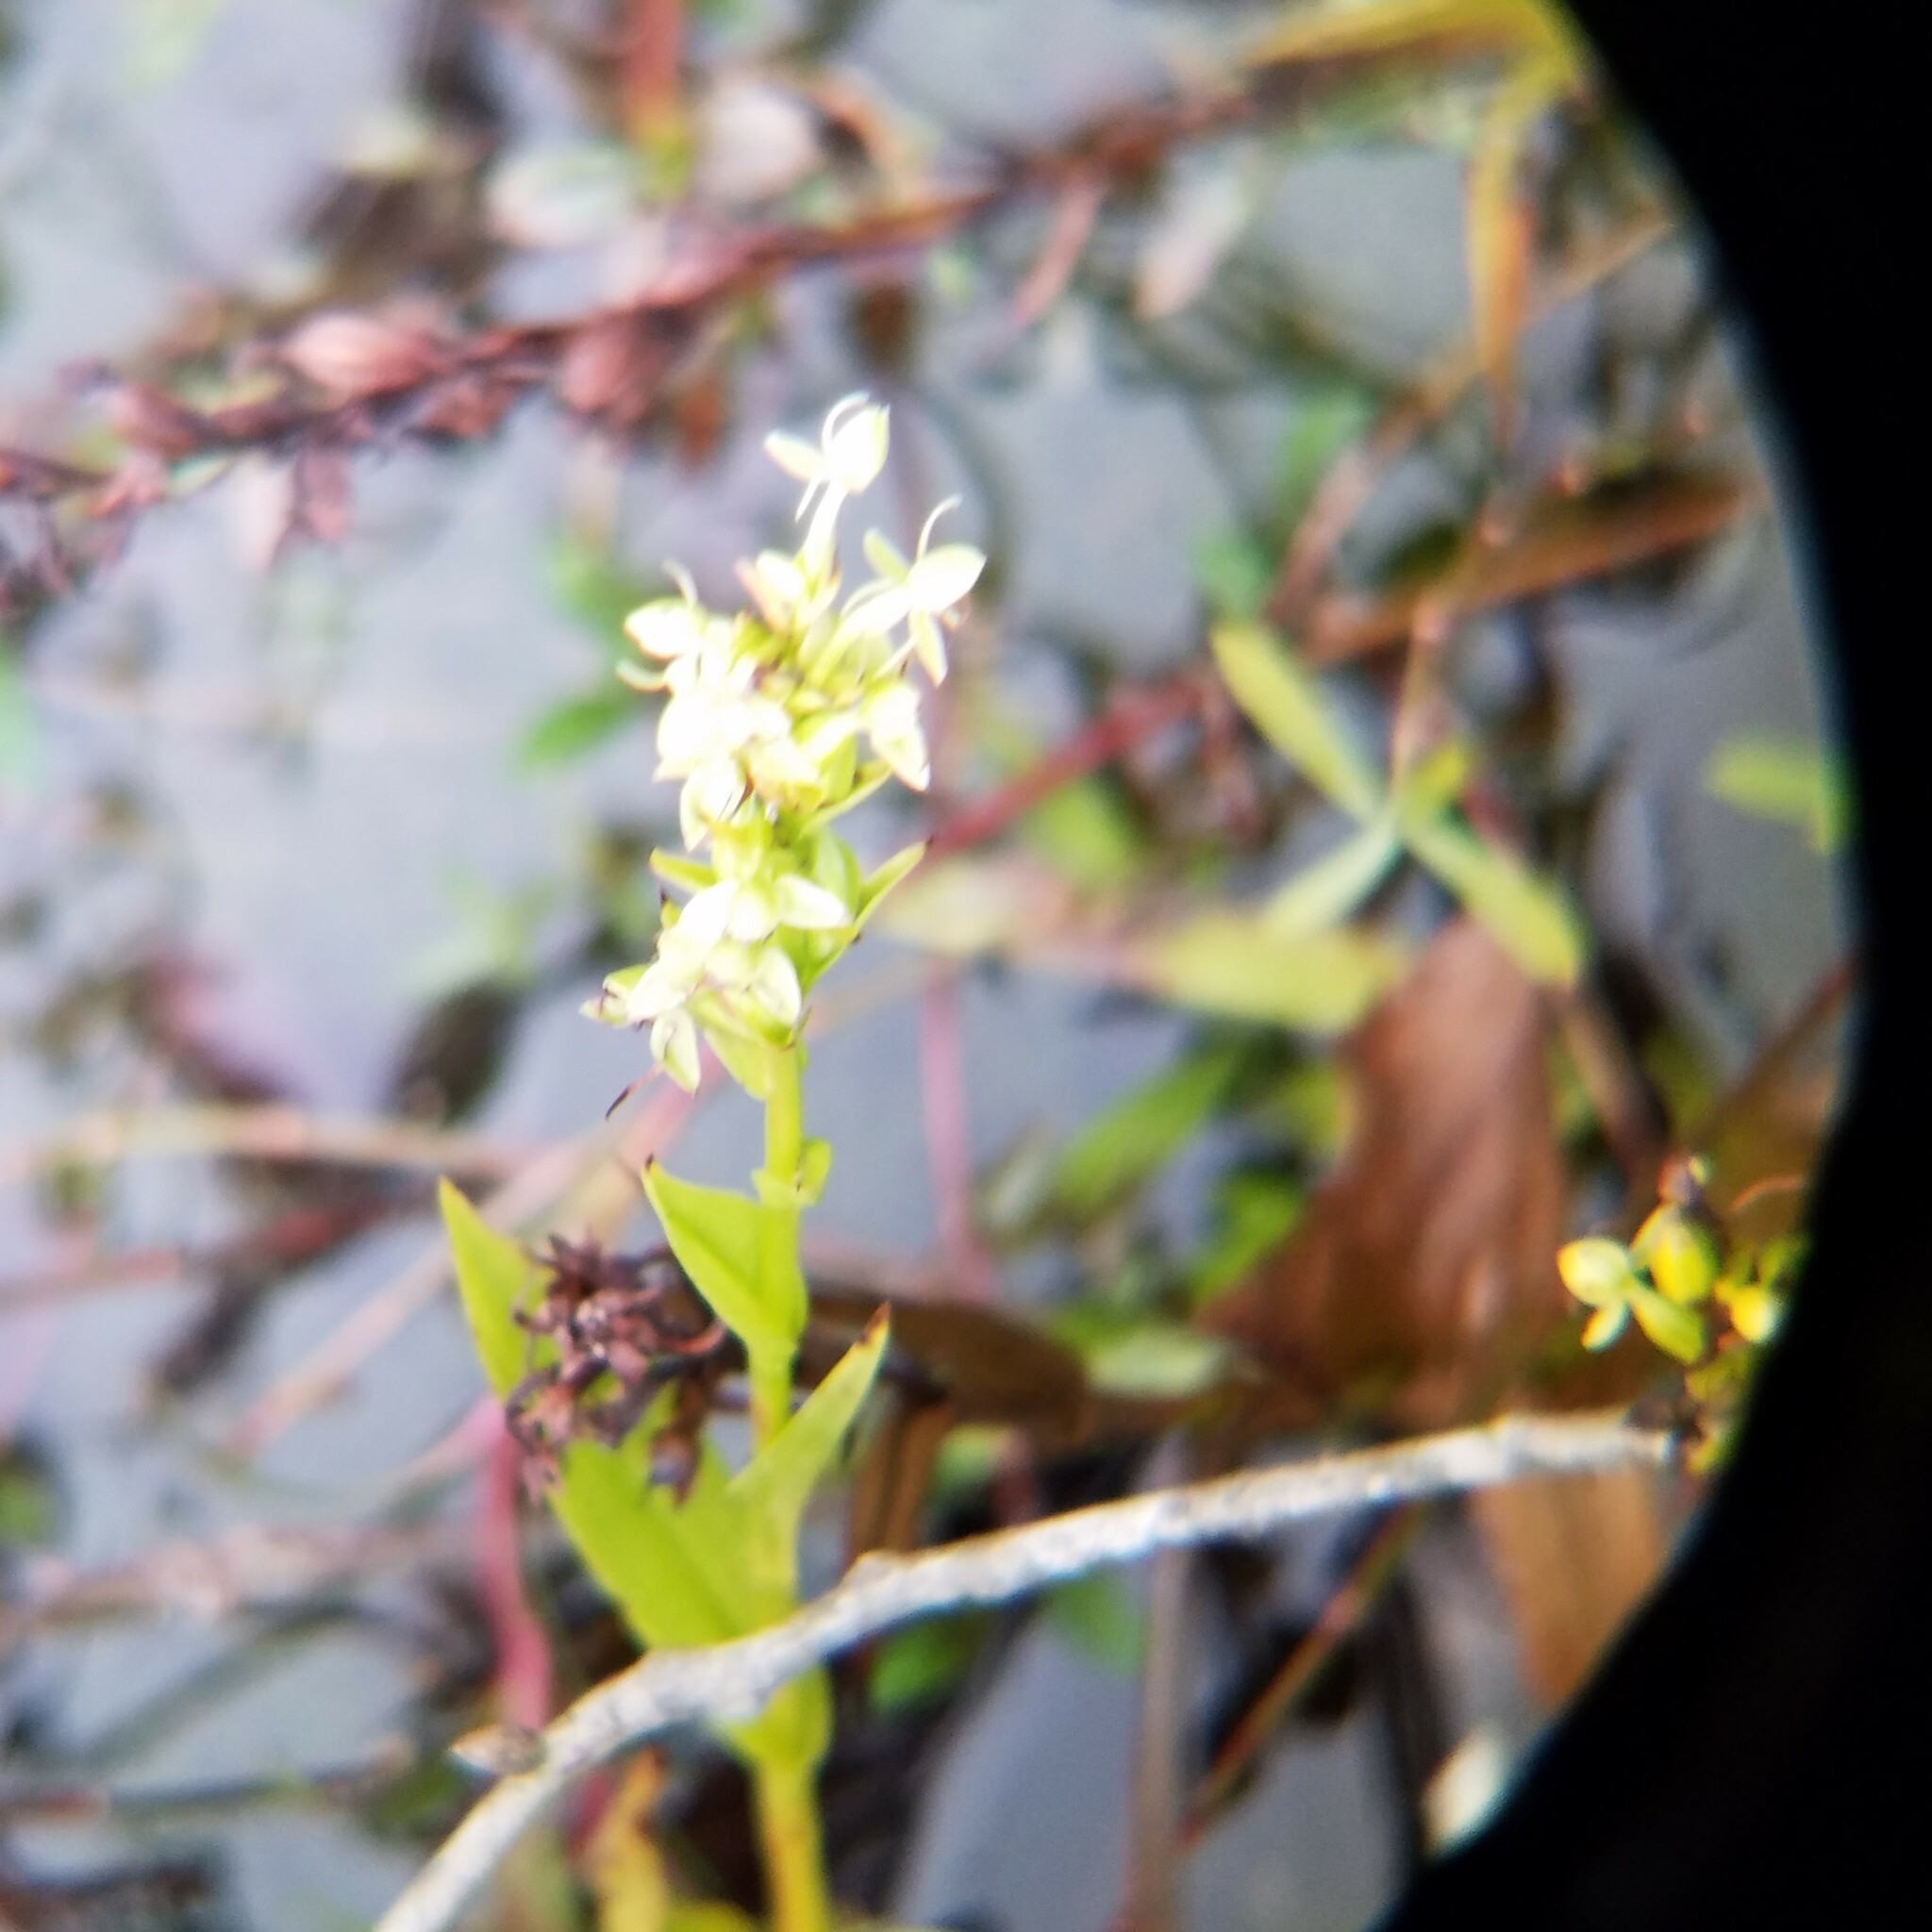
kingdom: Plantae
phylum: Tracheophyta
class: Liliopsida
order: Asparagales
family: Orchidaceae
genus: Habenaria
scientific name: Habenaria repens
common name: Water orchid
